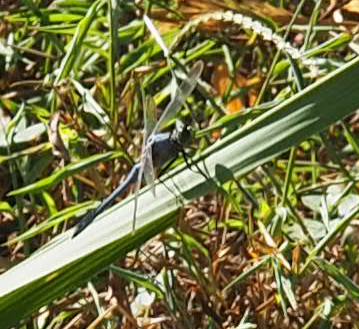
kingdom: Animalia
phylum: Arthropoda
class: Insecta
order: Odonata
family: Libellulidae
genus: Libellula
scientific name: Libellula vibrans
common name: Great blue skimmer
